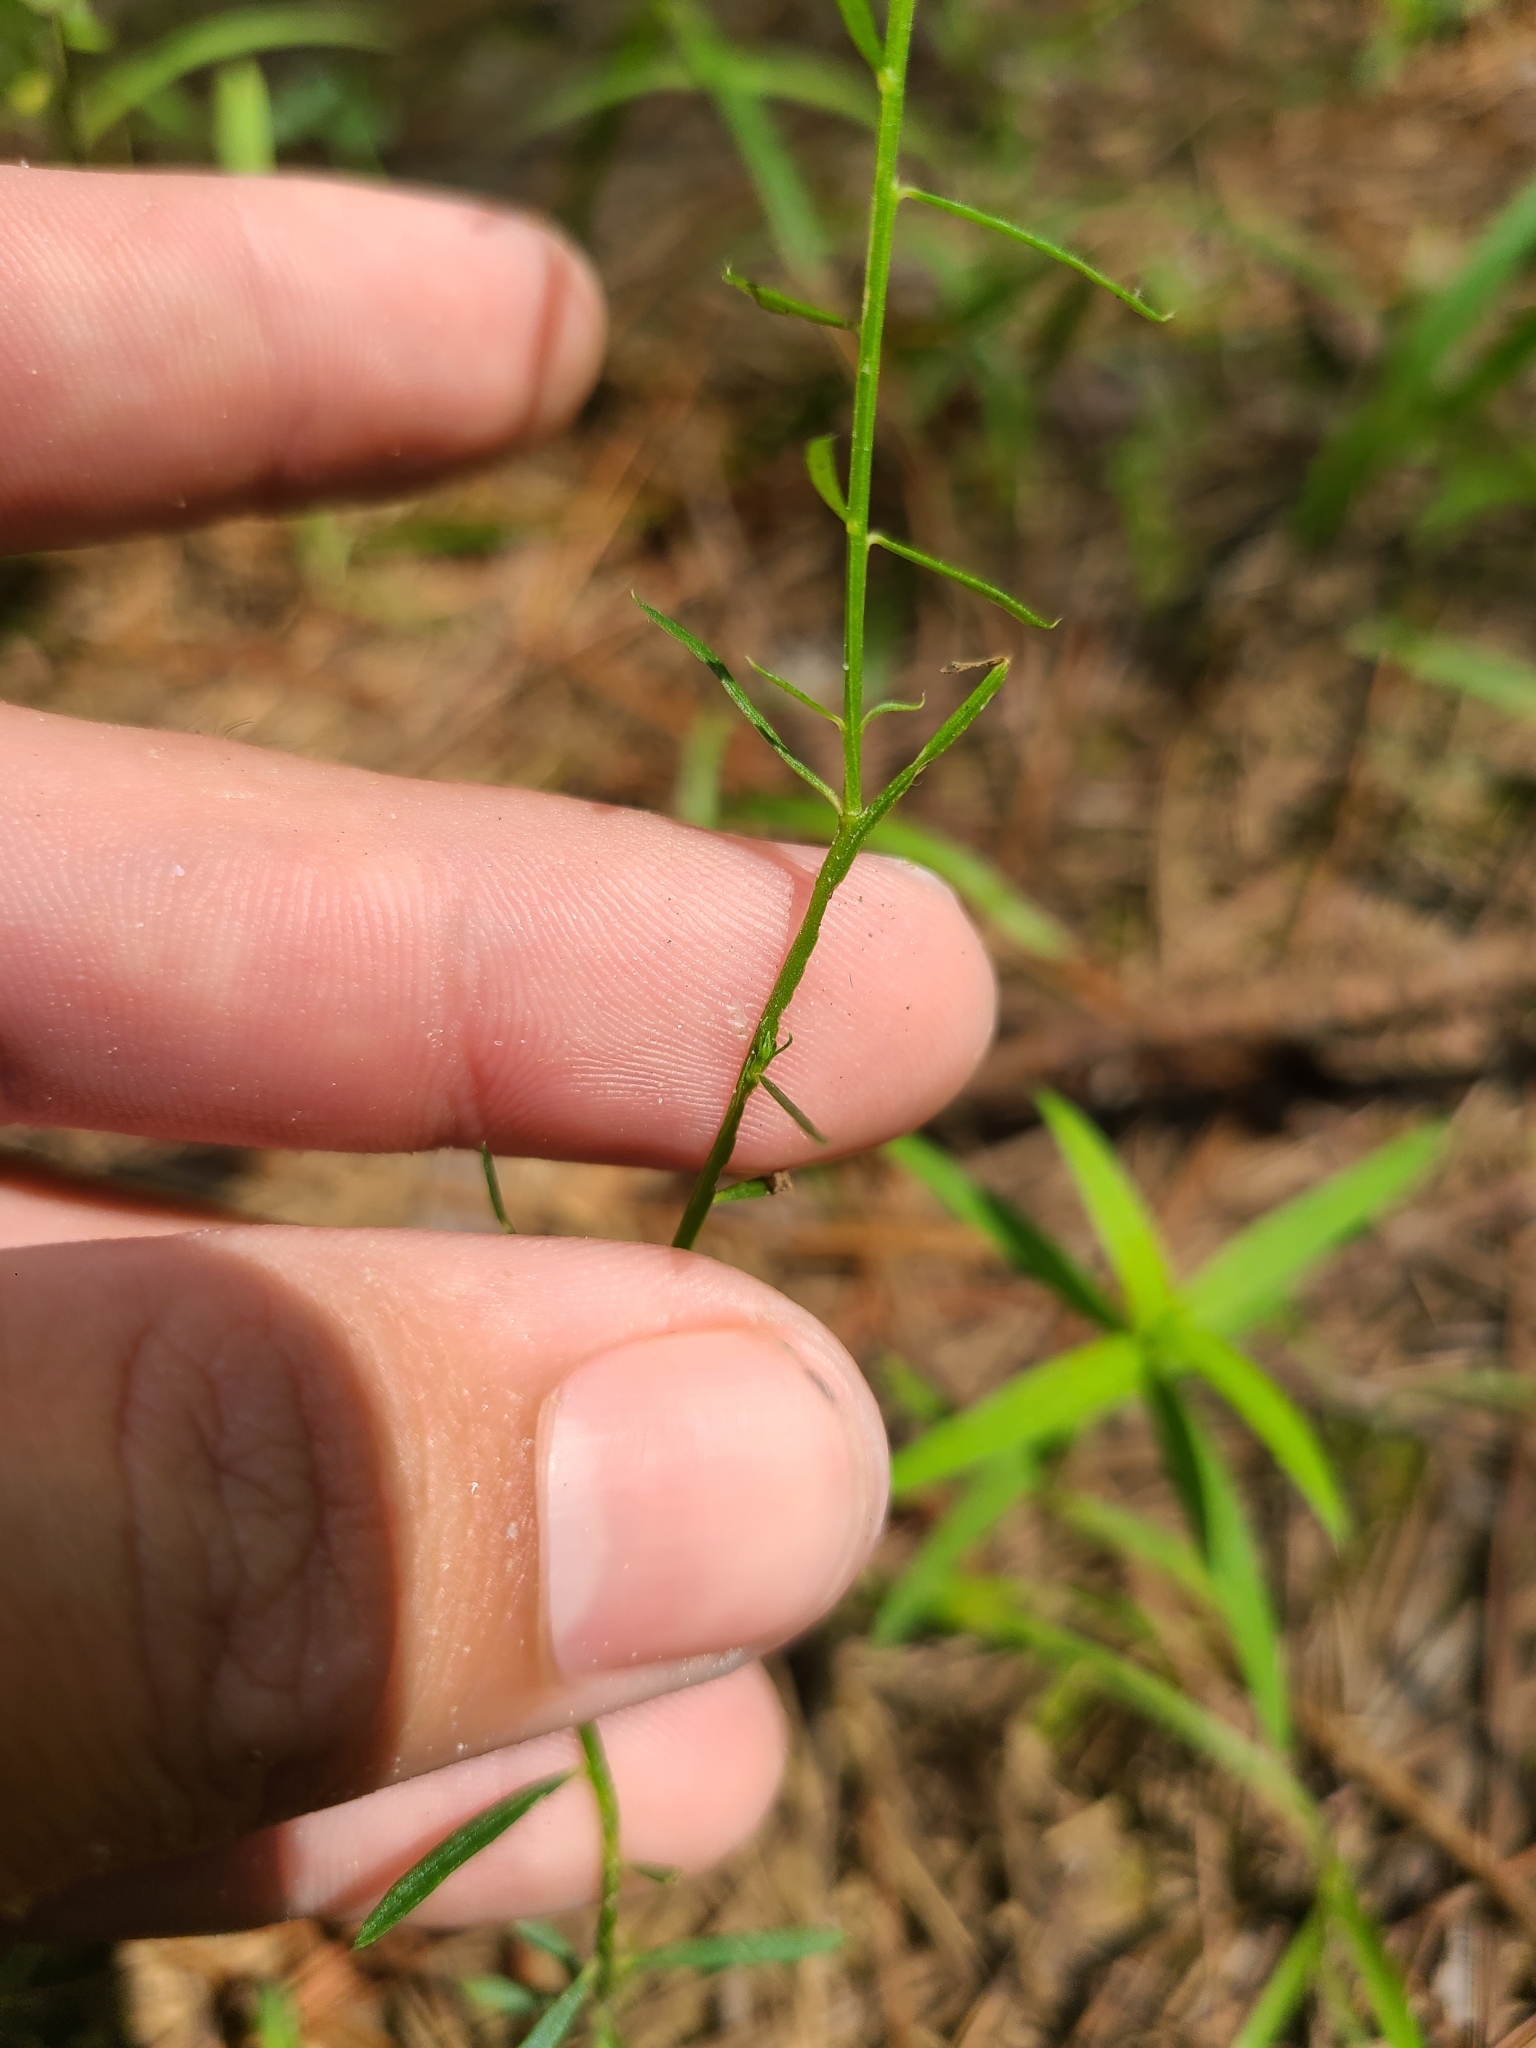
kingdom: Plantae
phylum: Tracheophyta
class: Magnoliopsida
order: Fabales
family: Polygalaceae
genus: Polygala
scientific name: Polygala mariana
